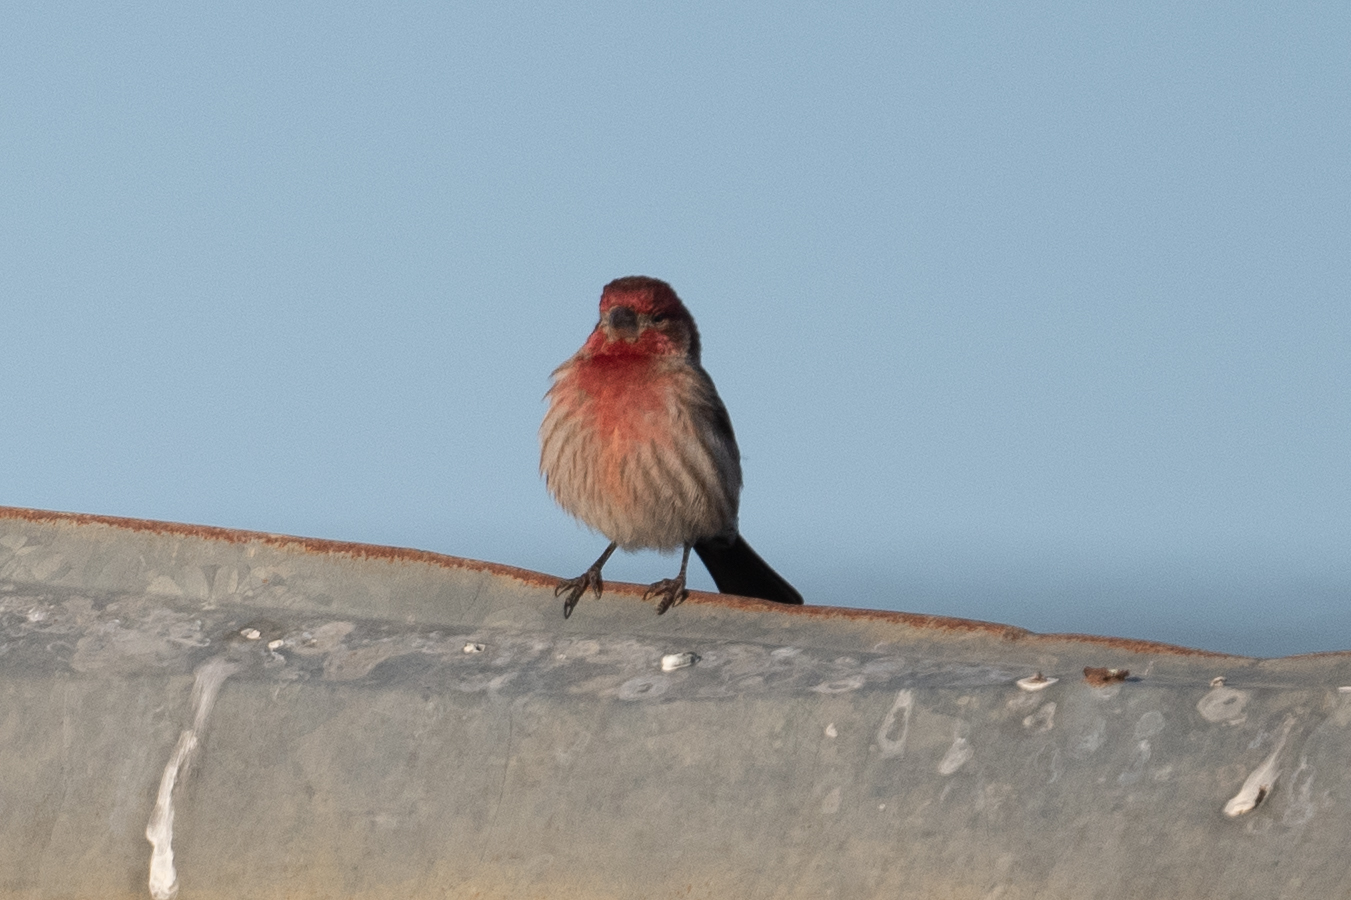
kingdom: Animalia
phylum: Chordata
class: Aves
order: Passeriformes
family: Fringillidae
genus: Haemorhous
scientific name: Haemorhous mexicanus
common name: House finch
